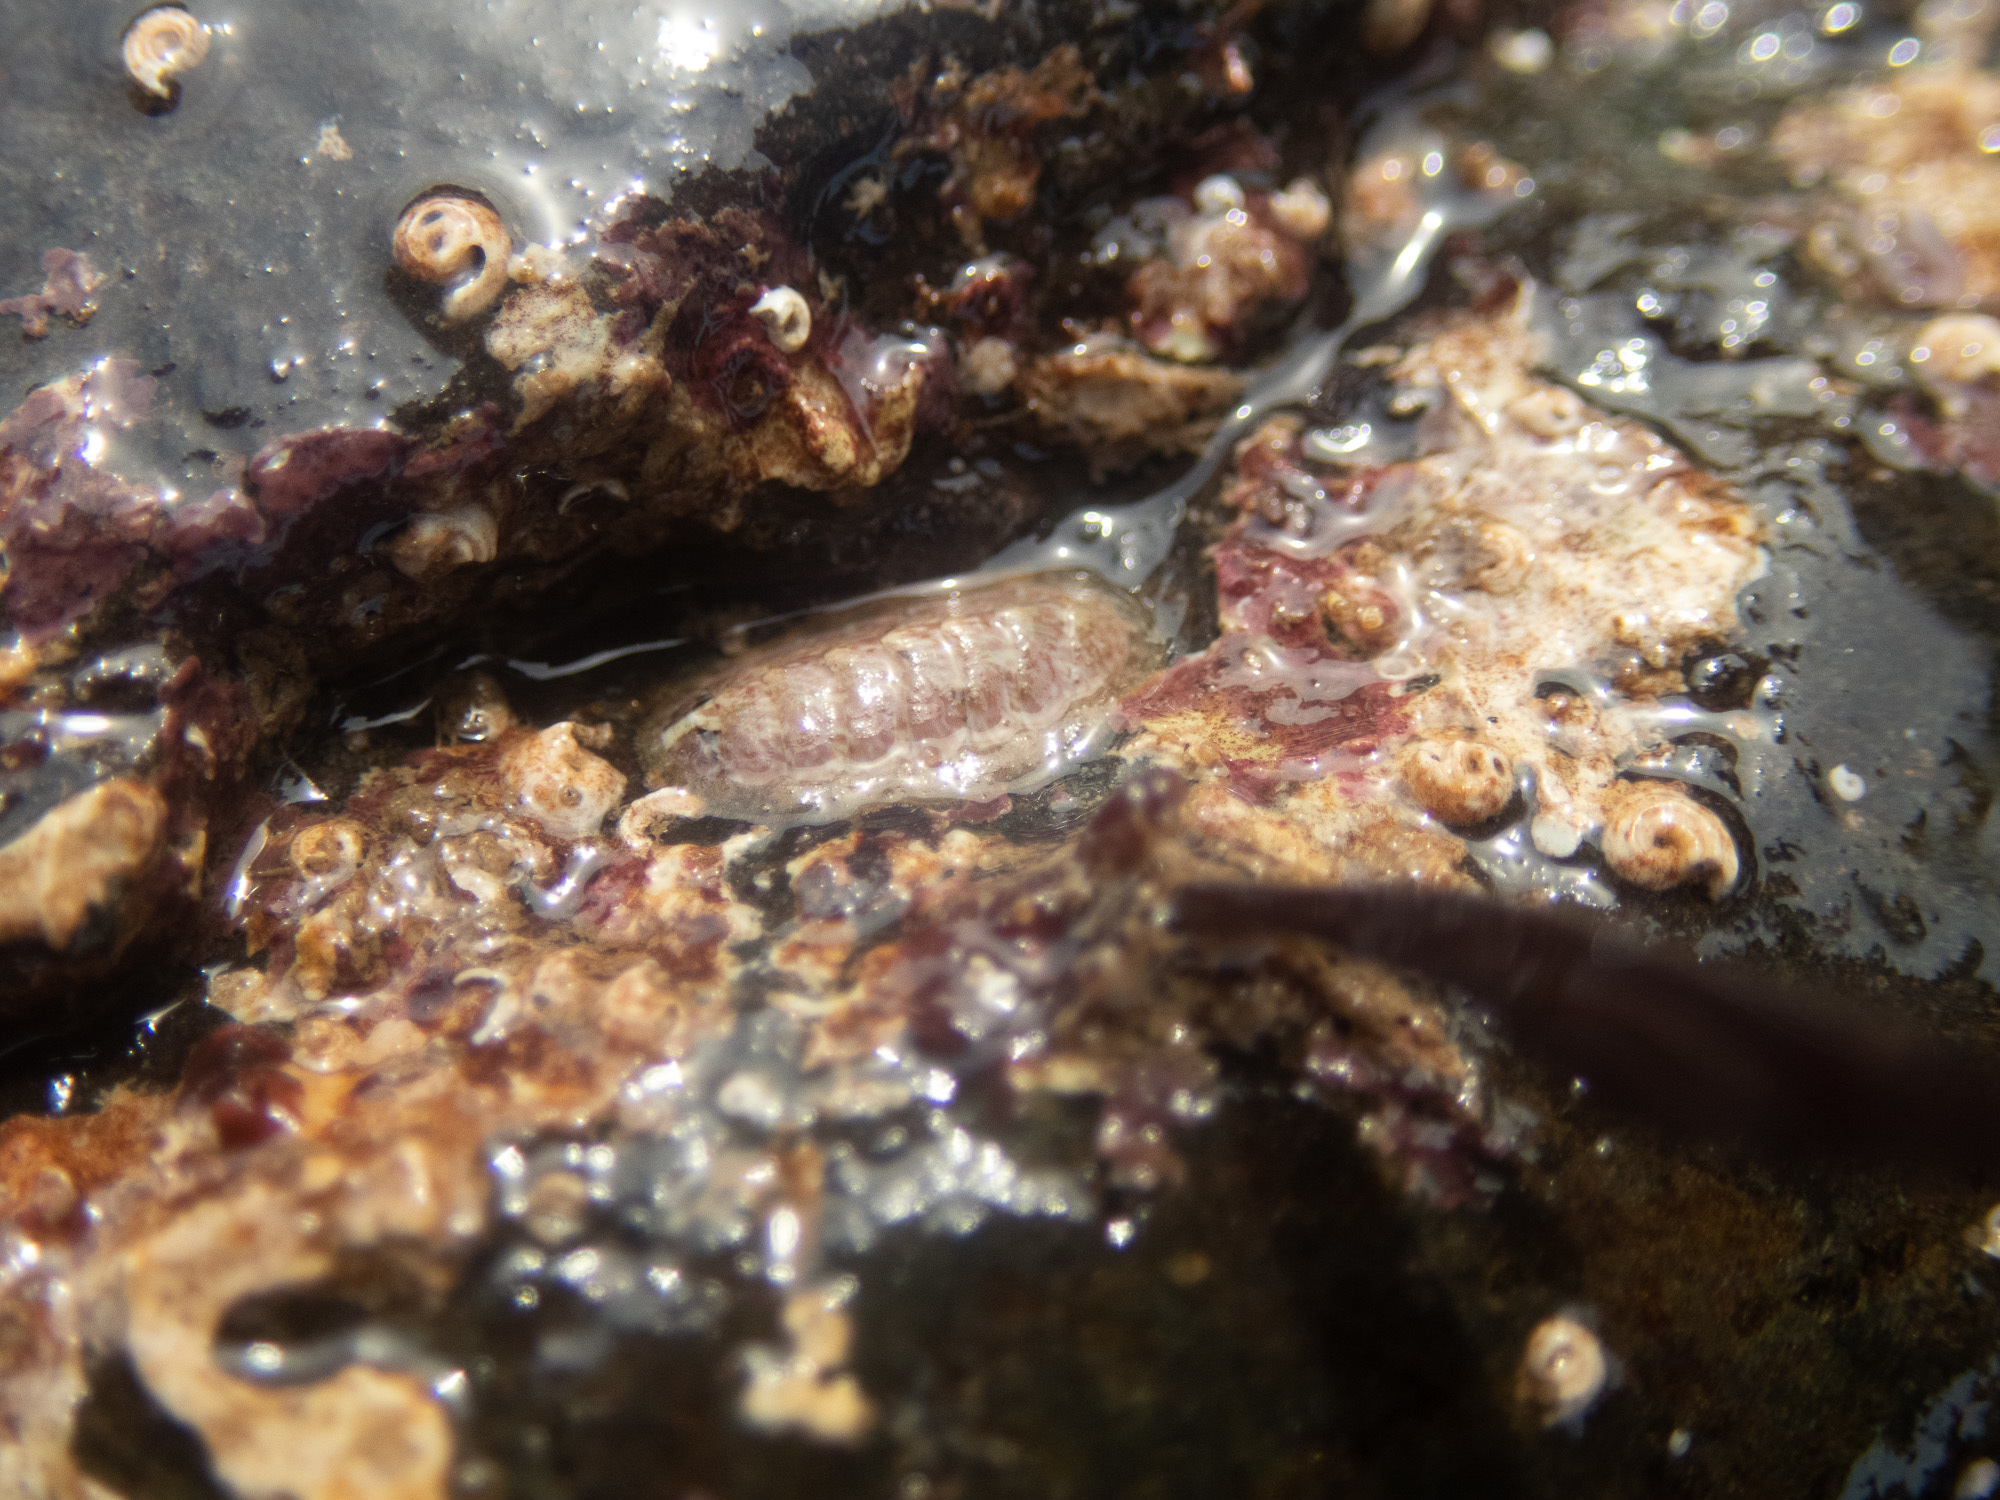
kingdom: Animalia
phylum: Mollusca
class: Polyplacophora
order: Chitonida
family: Tonicellidae
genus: Lepidochitona
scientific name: Lepidochitona cinerea
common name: Cinereous chiton
